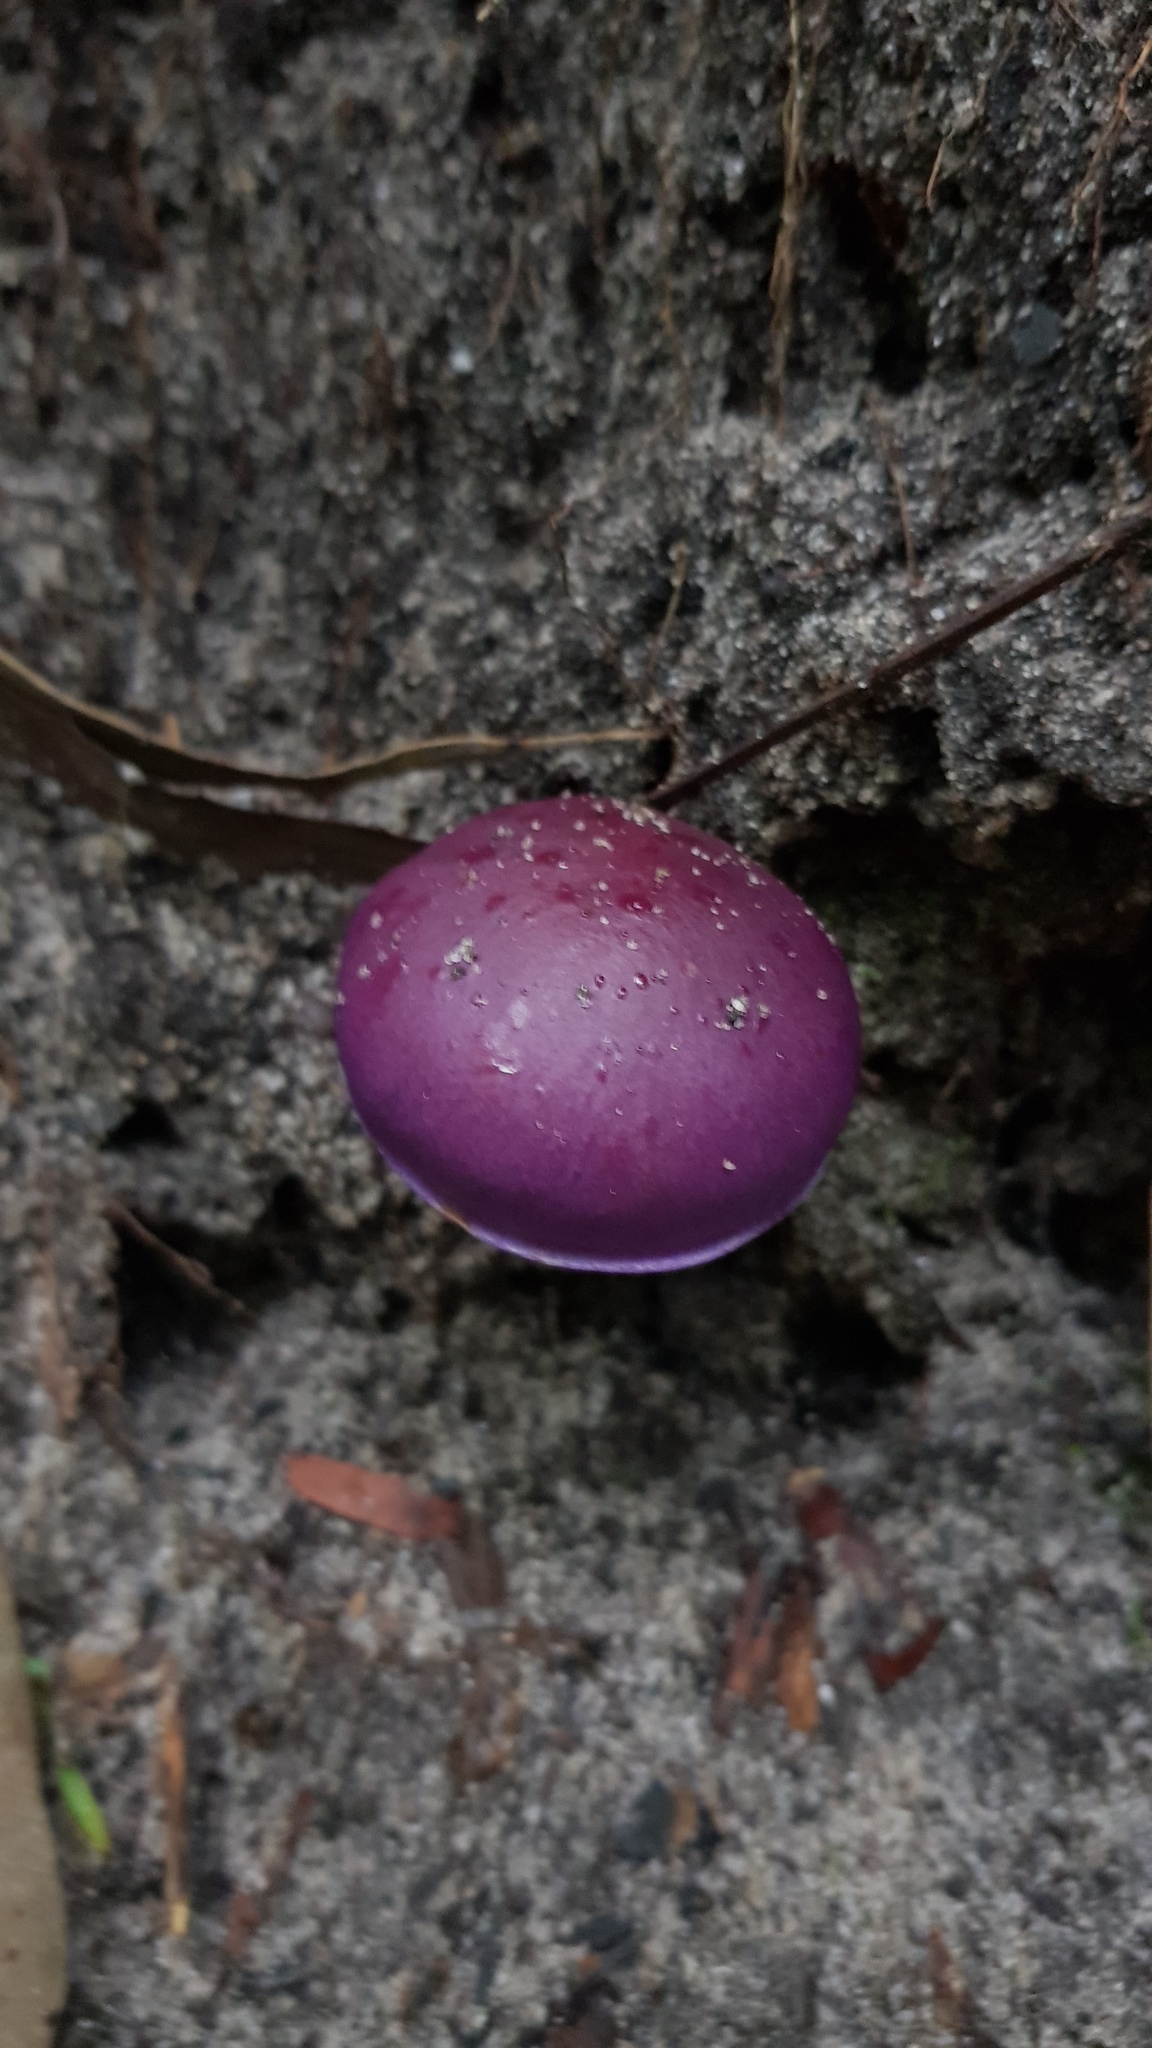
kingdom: Fungi
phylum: Basidiomycota
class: Agaricomycetes
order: Agaricales
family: Cortinariaceae
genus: Cortinarius
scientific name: Cortinarius archeri
